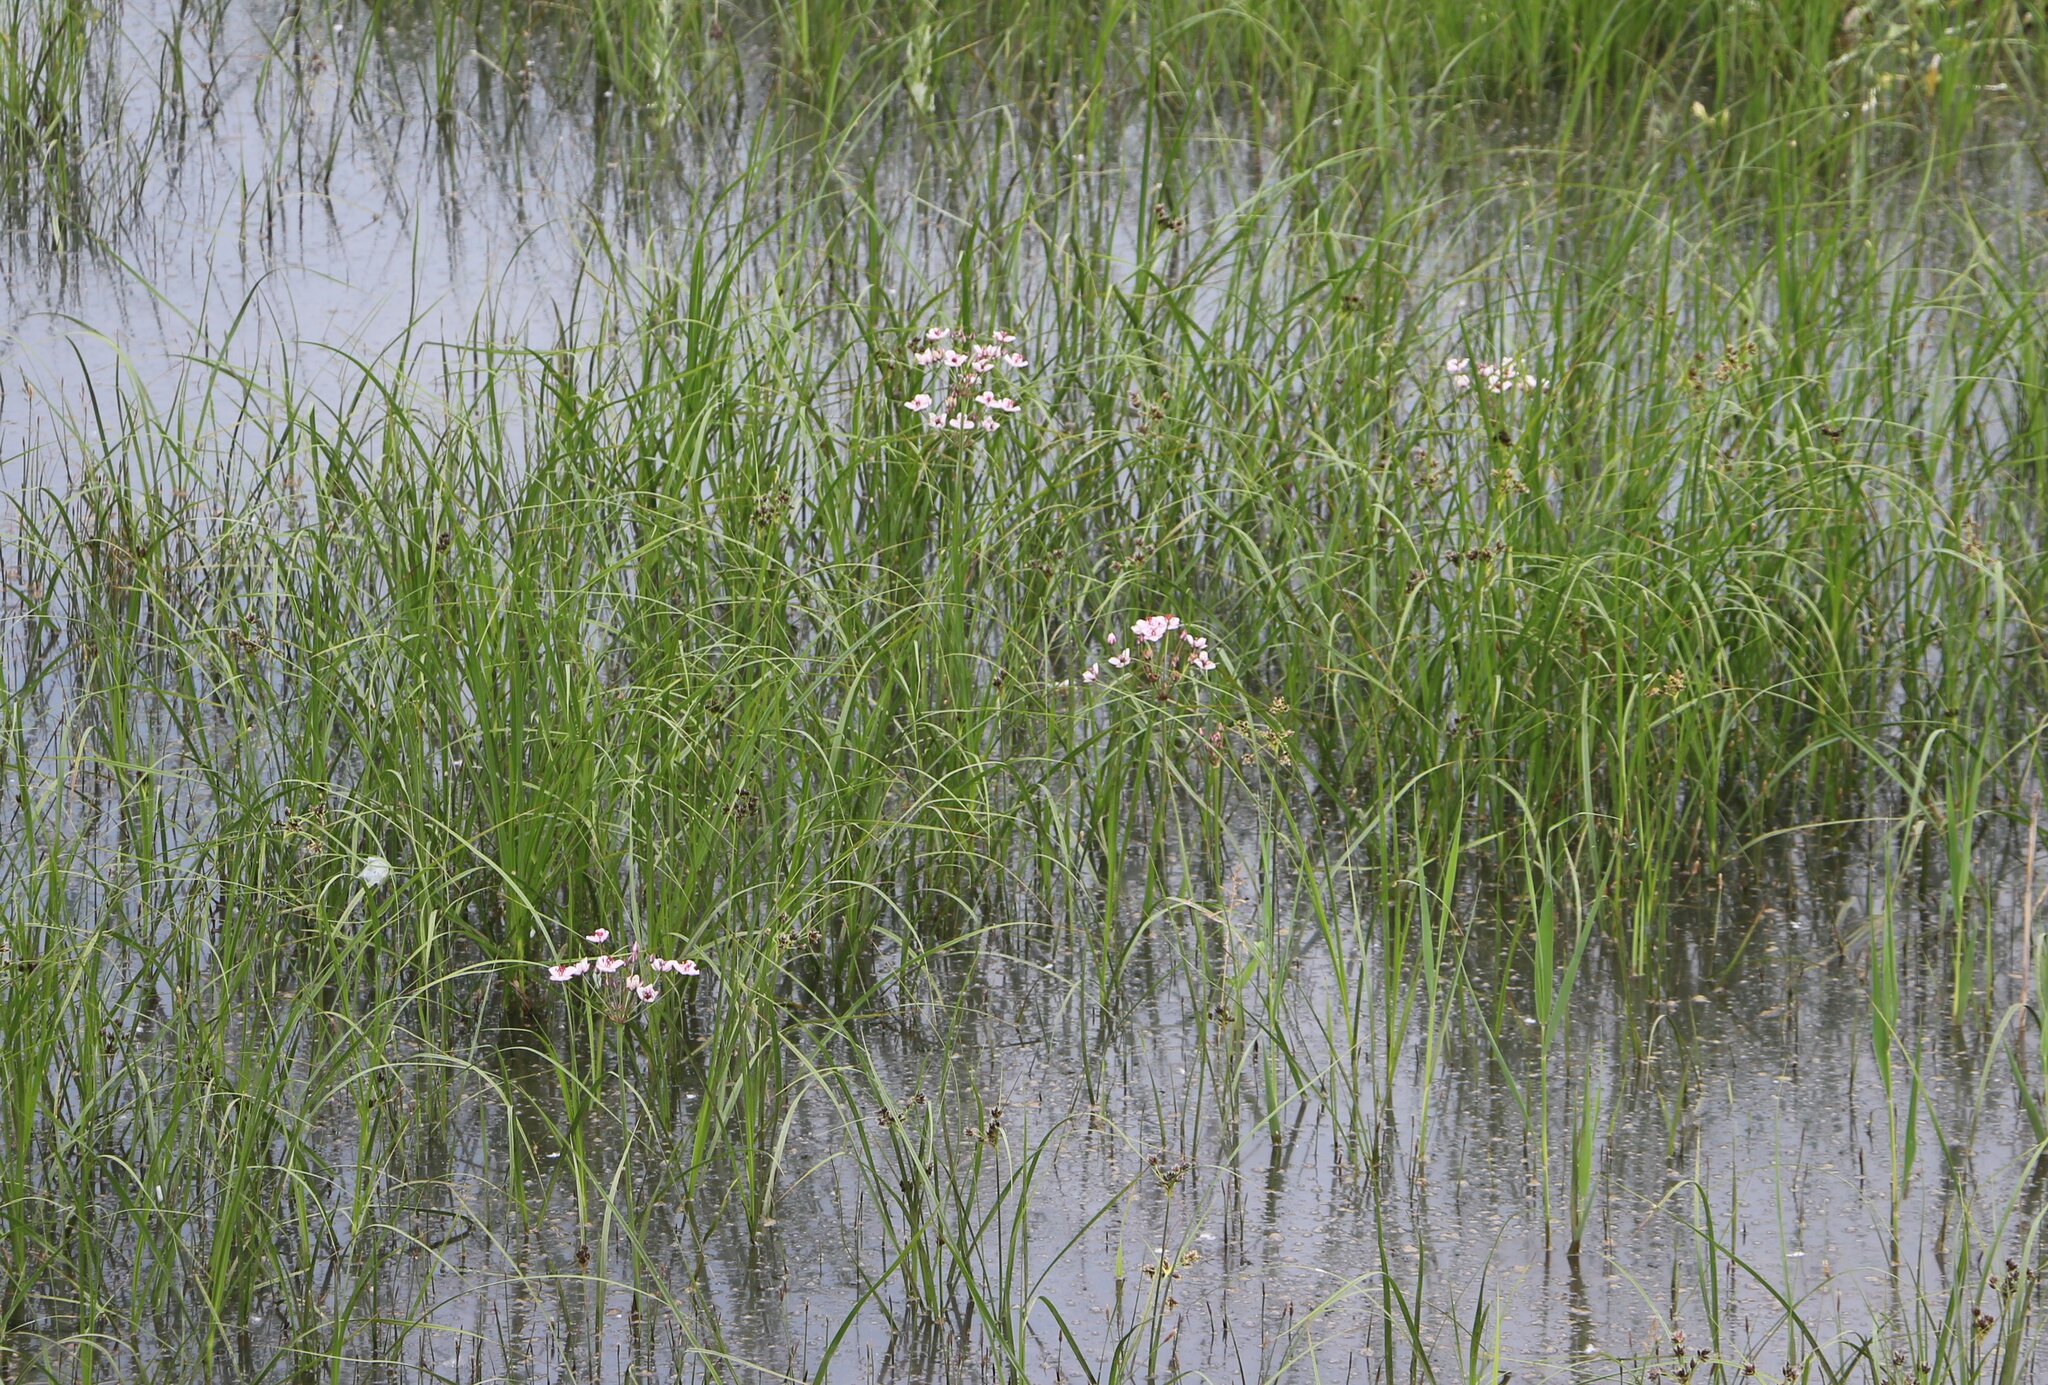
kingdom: Plantae
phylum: Tracheophyta
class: Liliopsida
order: Alismatales
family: Butomaceae
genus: Butomus
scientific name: Butomus umbellatus
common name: Flowering-rush
